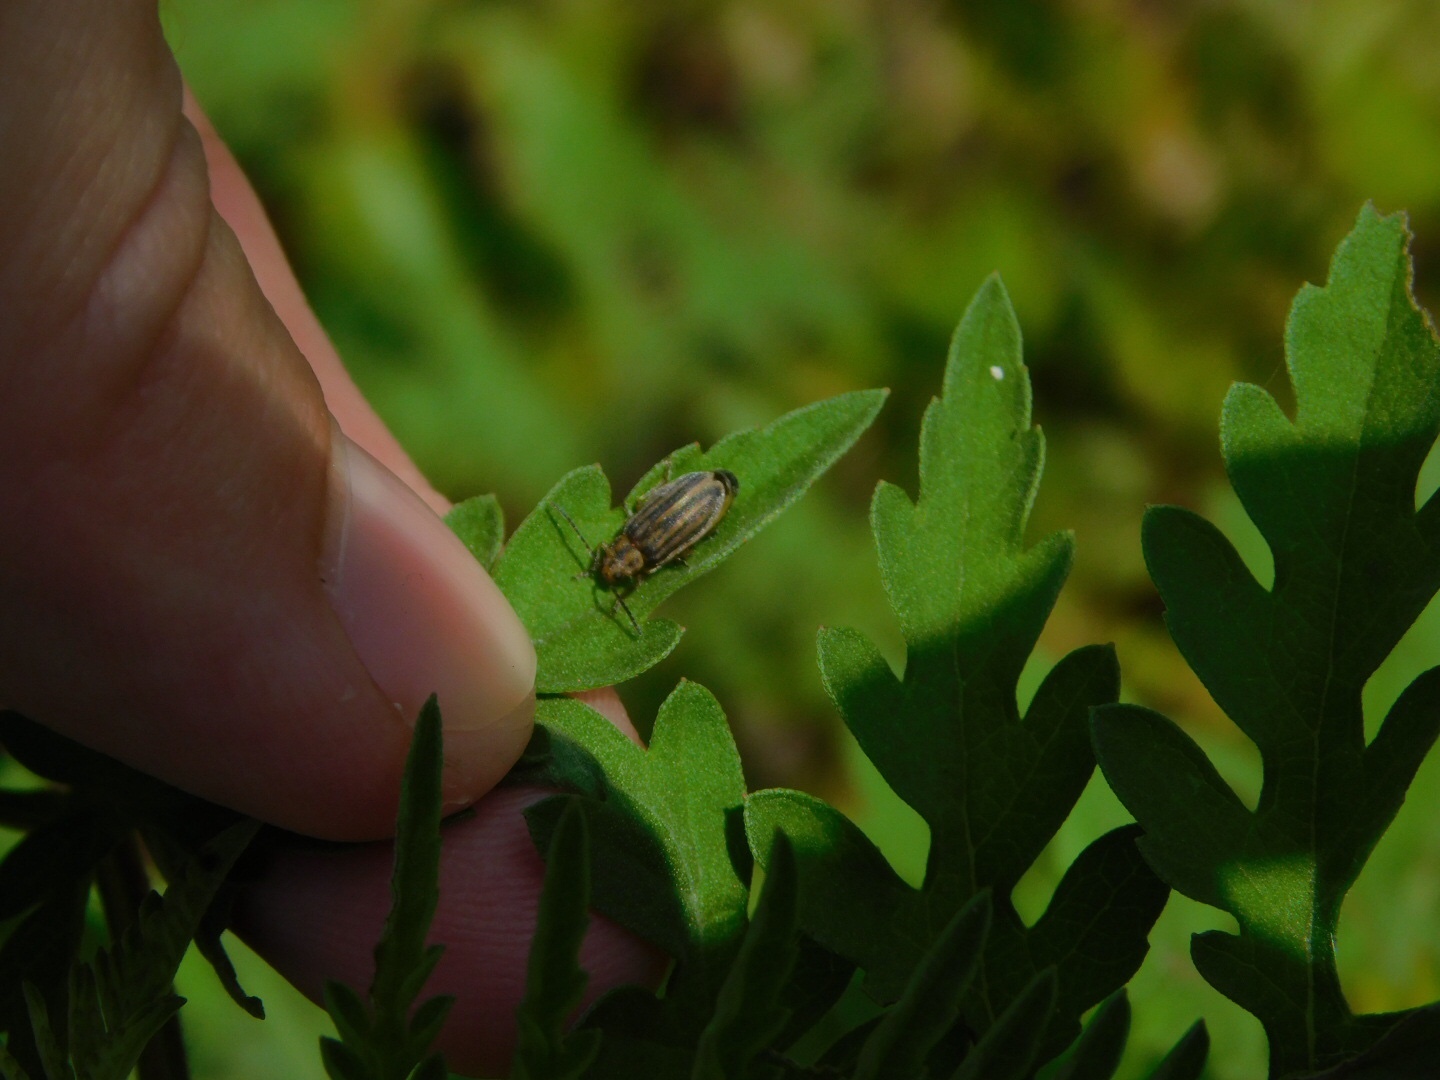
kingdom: Plantae
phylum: Tracheophyta
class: Magnoliopsida
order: Asterales
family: Asteraceae
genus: Ambrosia
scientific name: Ambrosia artemisiifolia
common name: Annual ragweed
